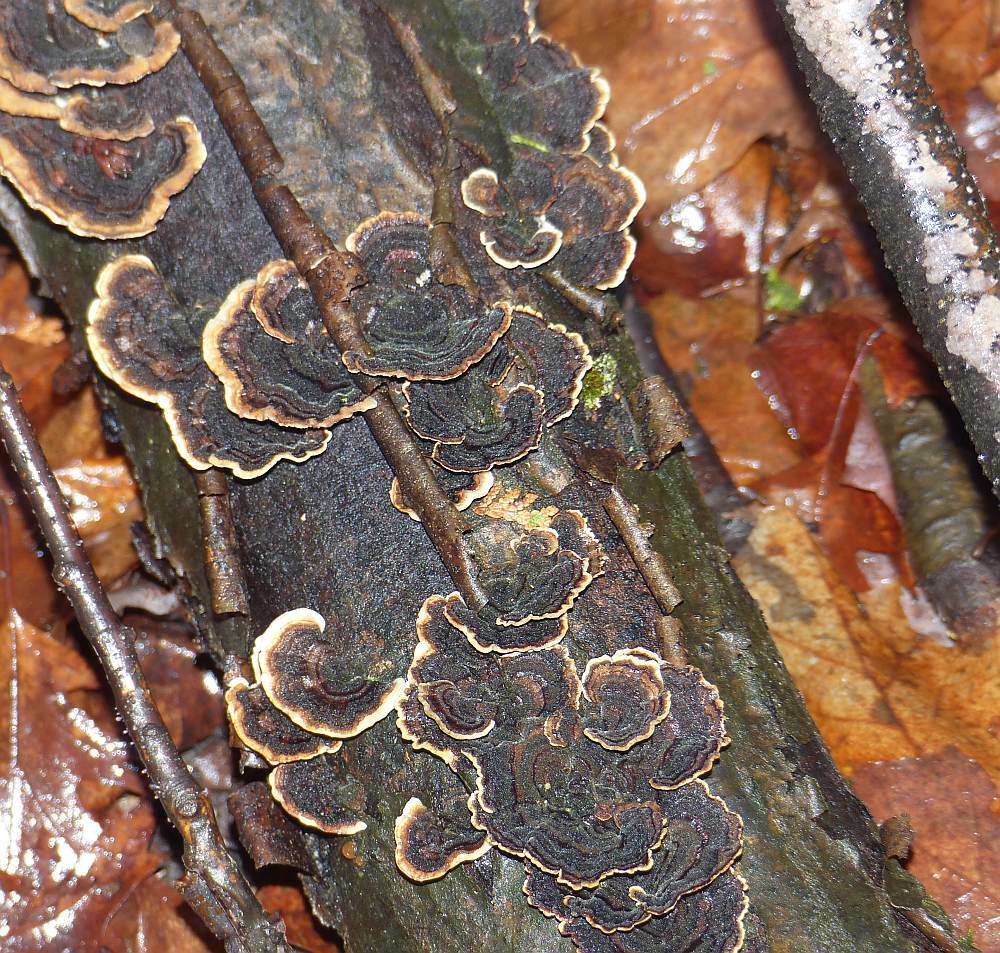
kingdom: Fungi
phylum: Basidiomycota
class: Agaricomycetes
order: Polyporales
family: Polyporaceae
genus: Trametes
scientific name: Trametes versicolor
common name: Turkeytail
